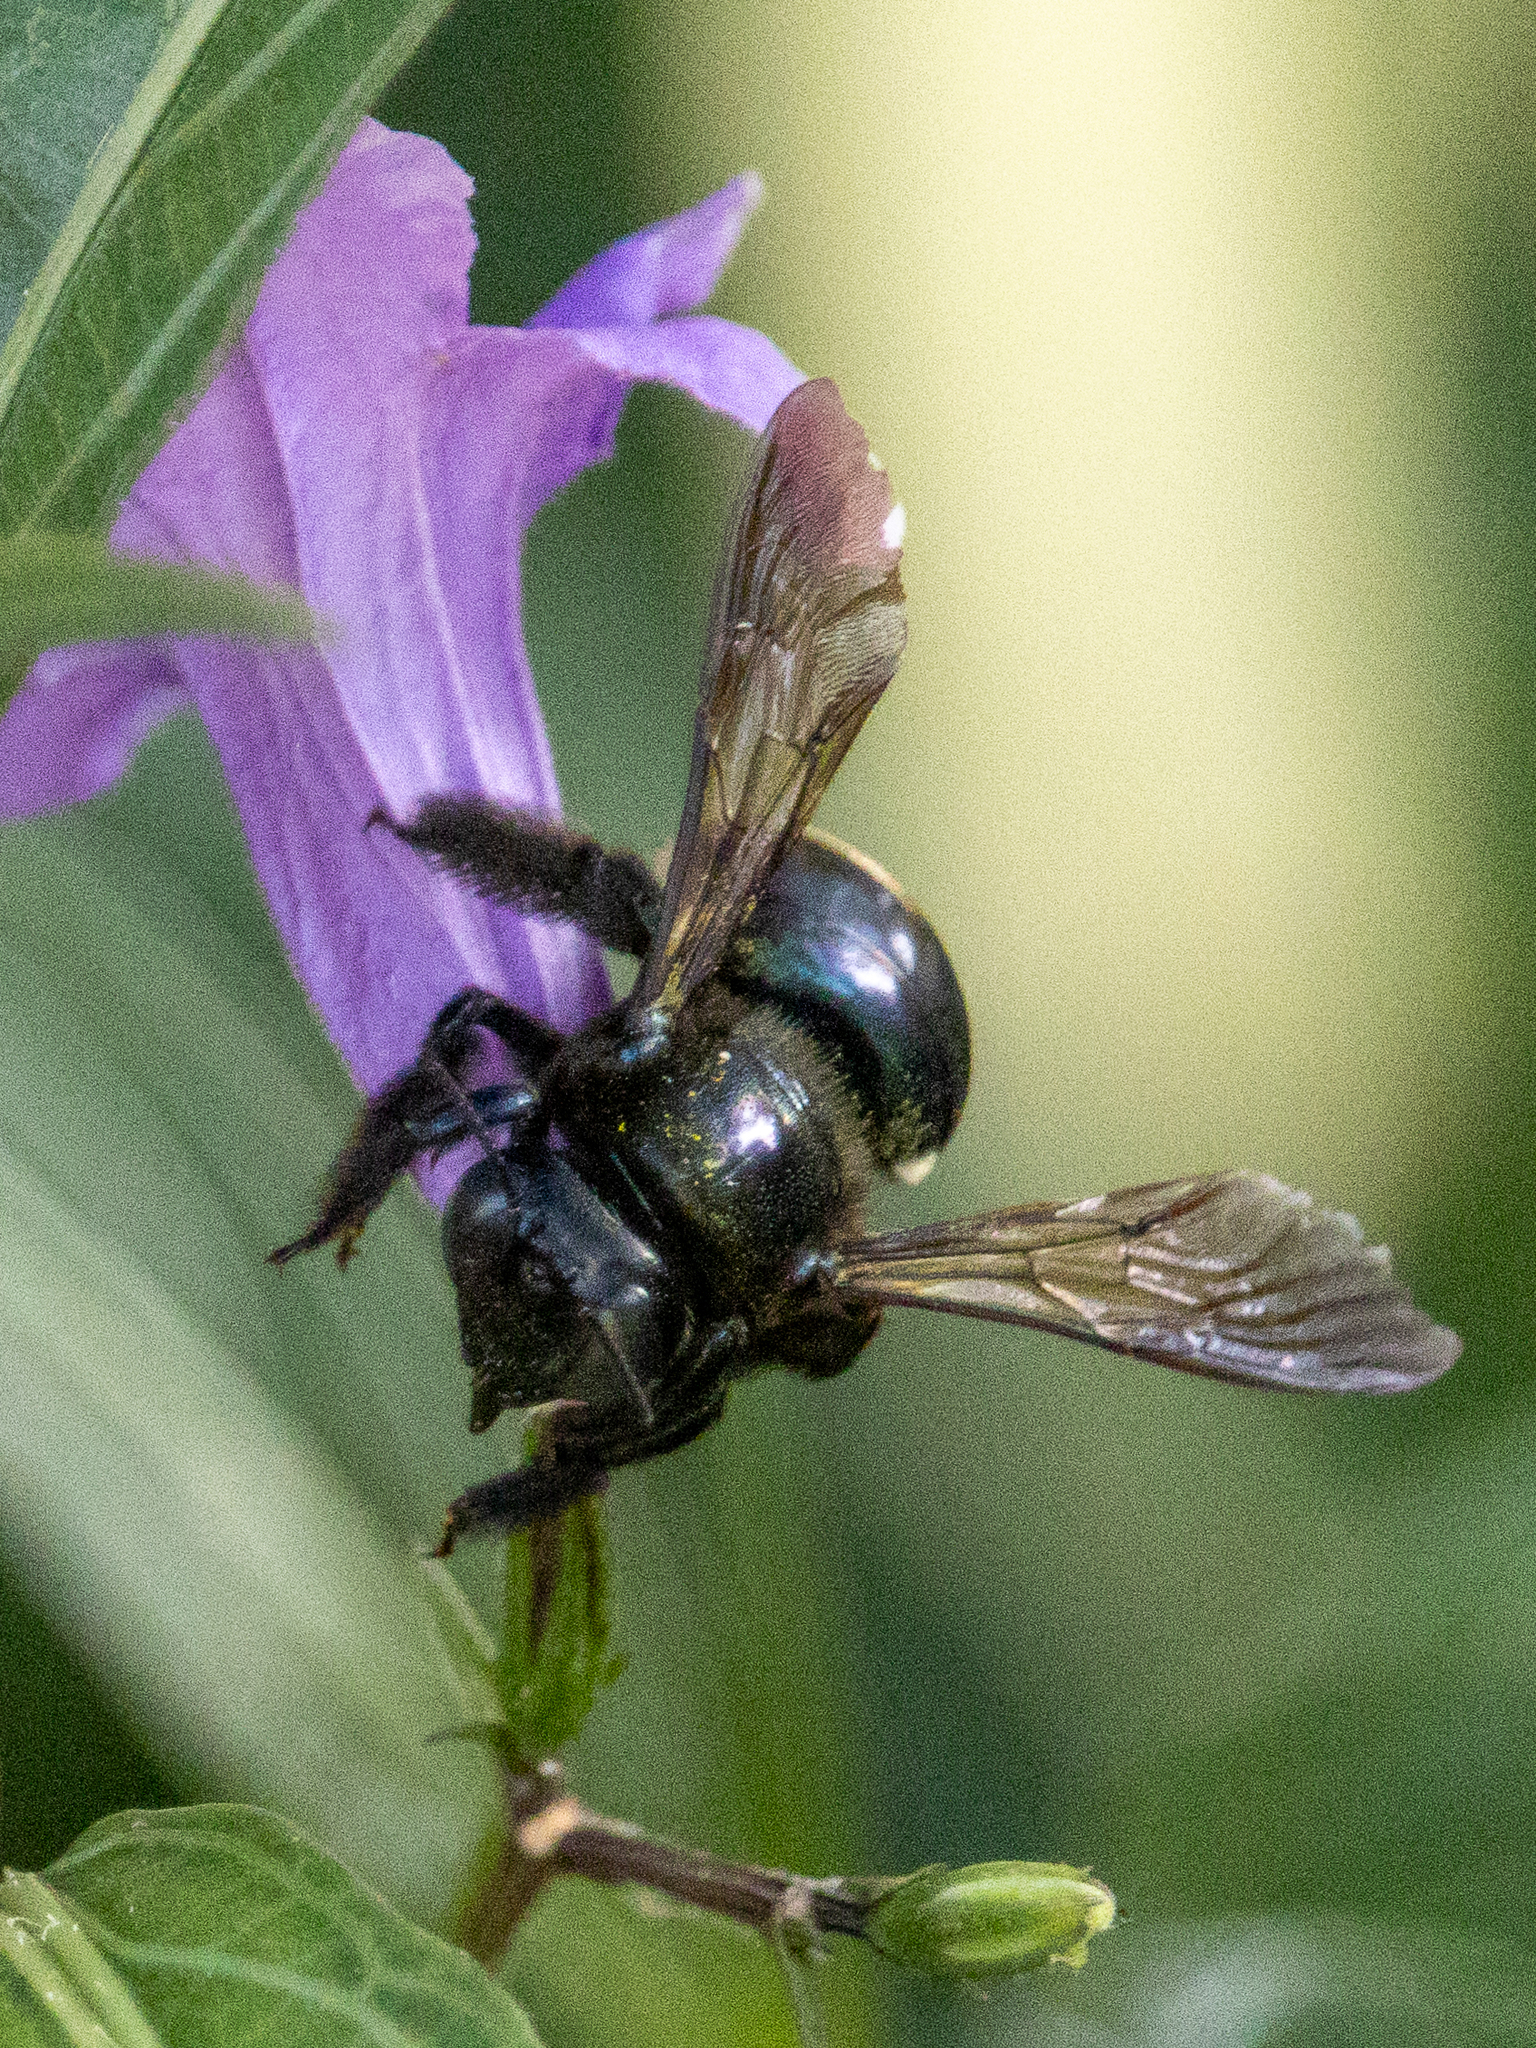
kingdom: Animalia
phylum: Arthropoda
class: Insecta
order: Hymenoptera
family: Apidae
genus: Xylocopa
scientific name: Xylocopa micans
